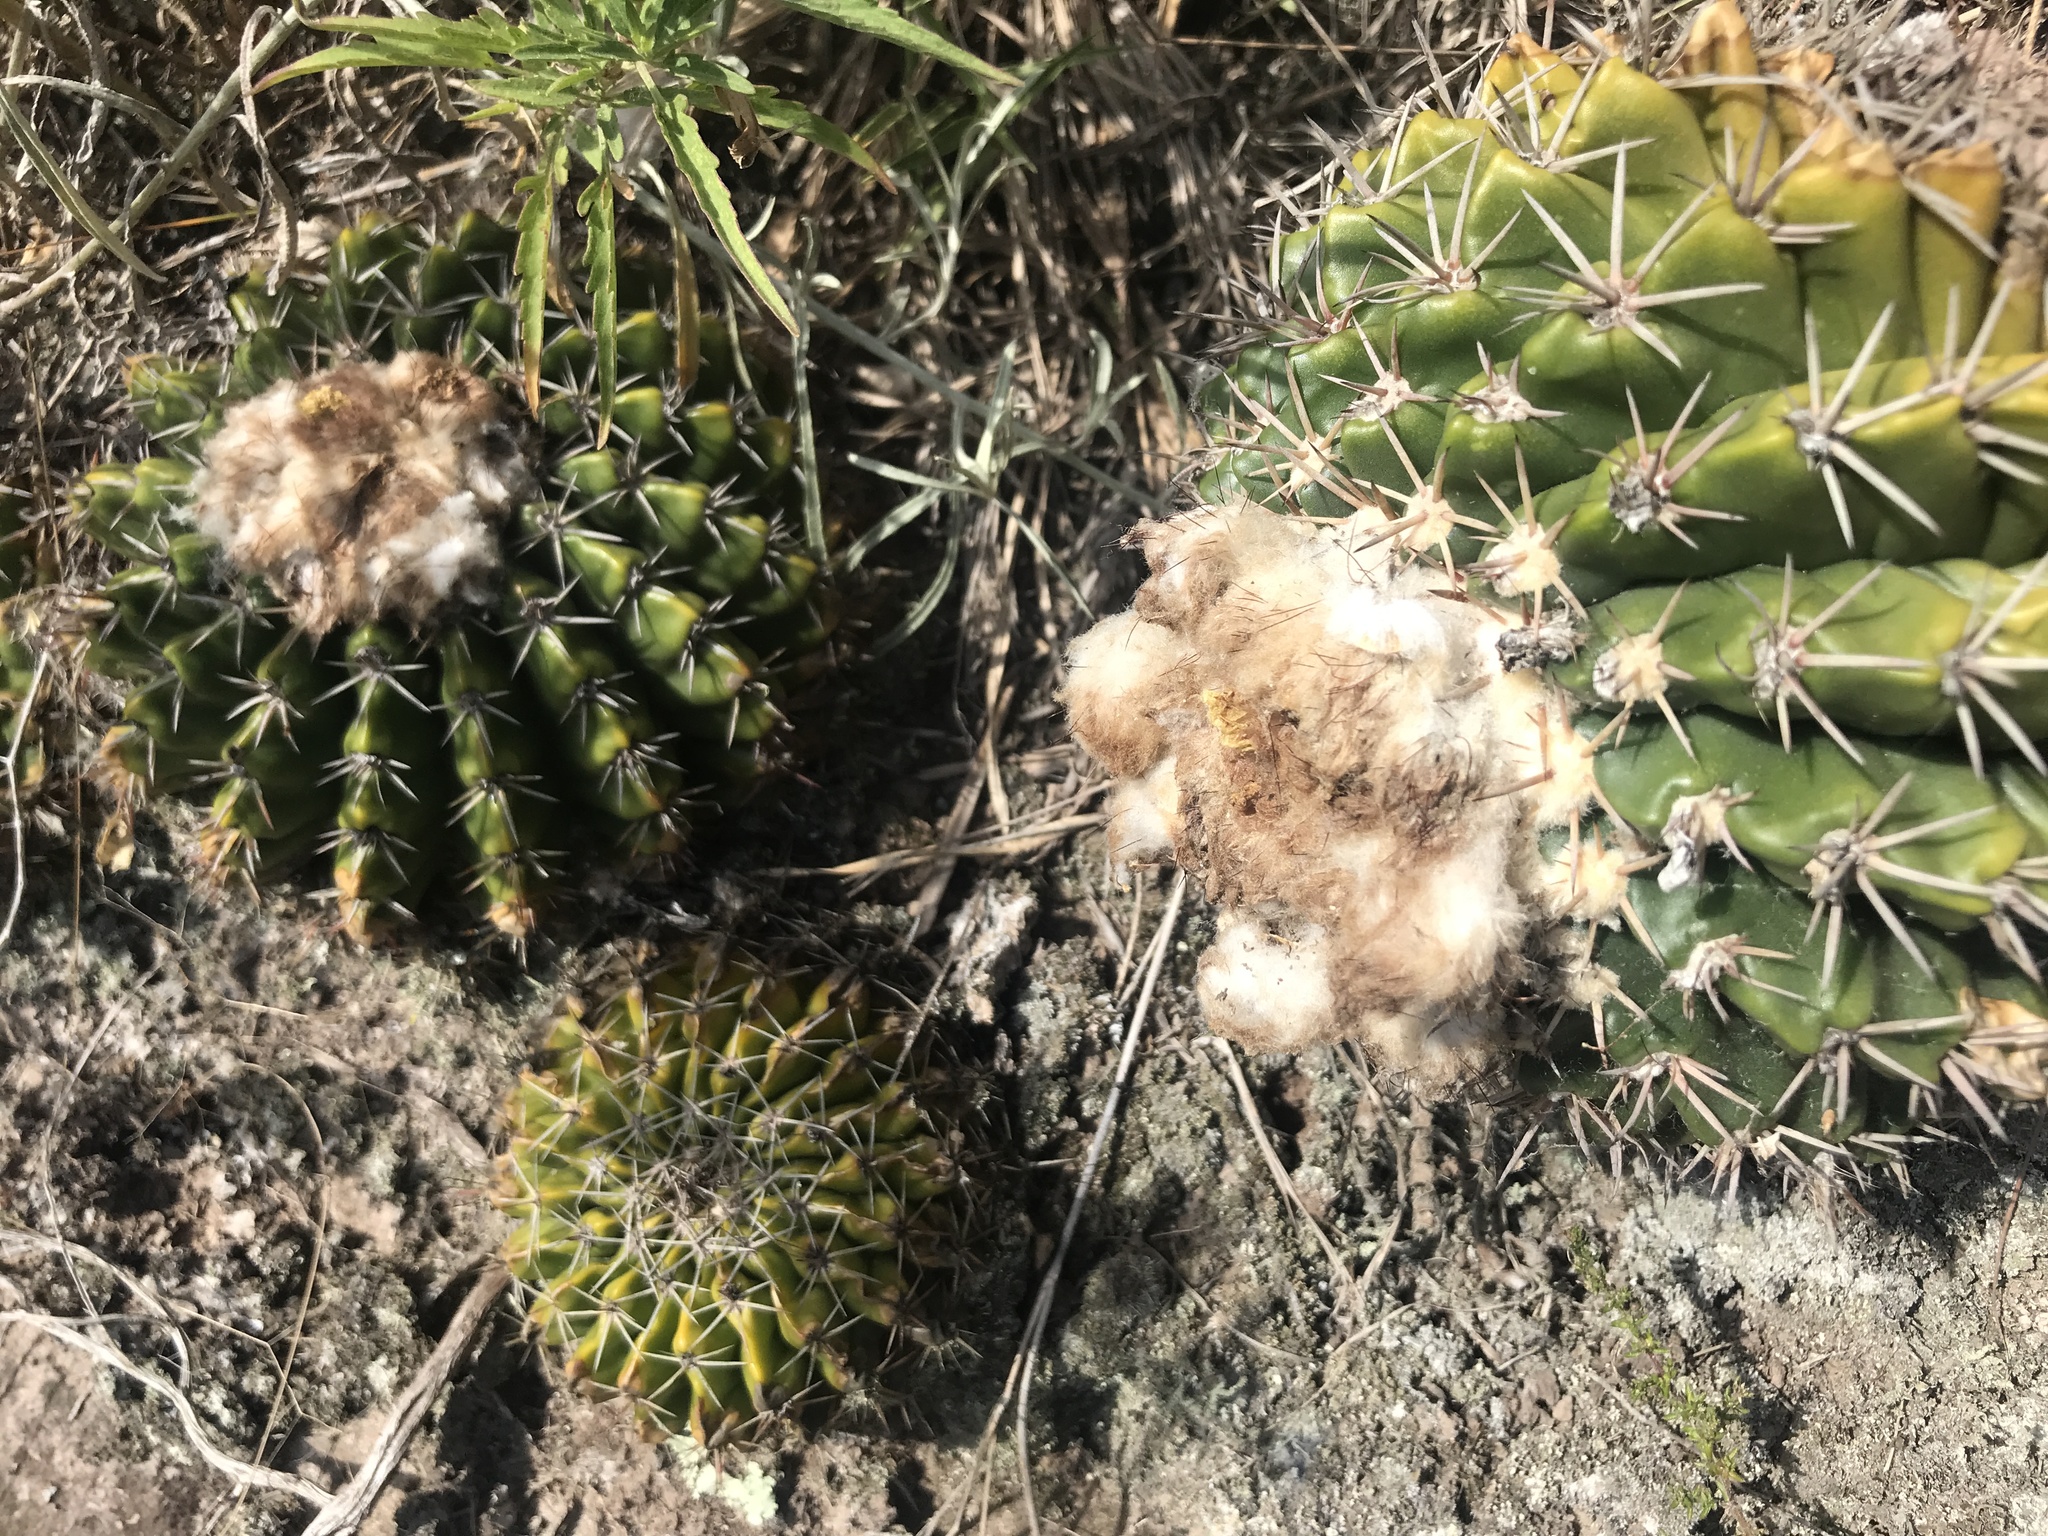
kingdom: Plantae
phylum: Tracheophyta
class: Magnoliopsida
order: Caryophyllales
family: Cactaceae
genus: Parodia
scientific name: Parodia erinacea
